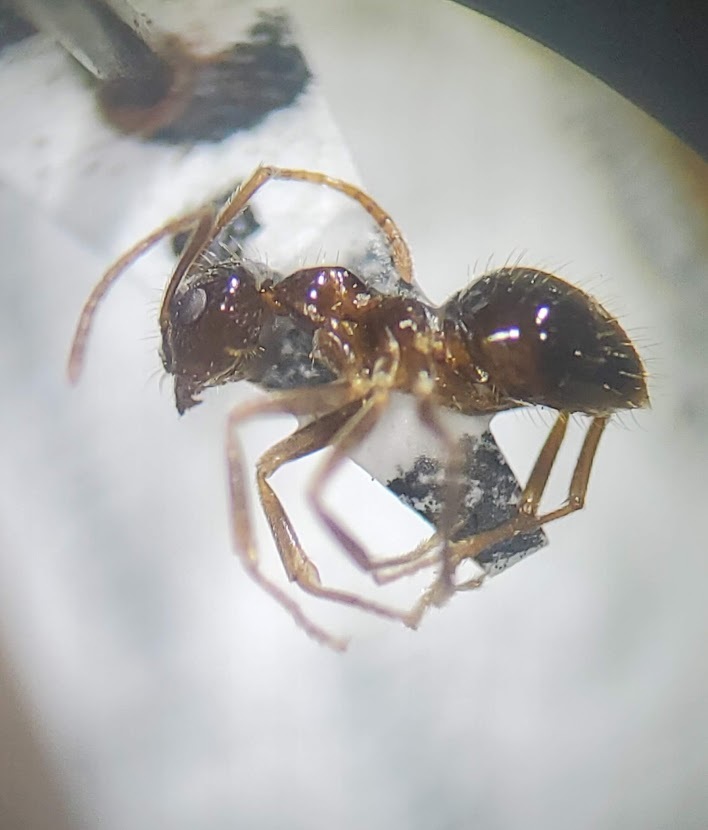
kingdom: Animalia
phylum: Arthropoda
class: Insecta
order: Hymenoptera
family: Formicidae
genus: Prenolepis
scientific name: Prenolepis imparis
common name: Small honey ant
